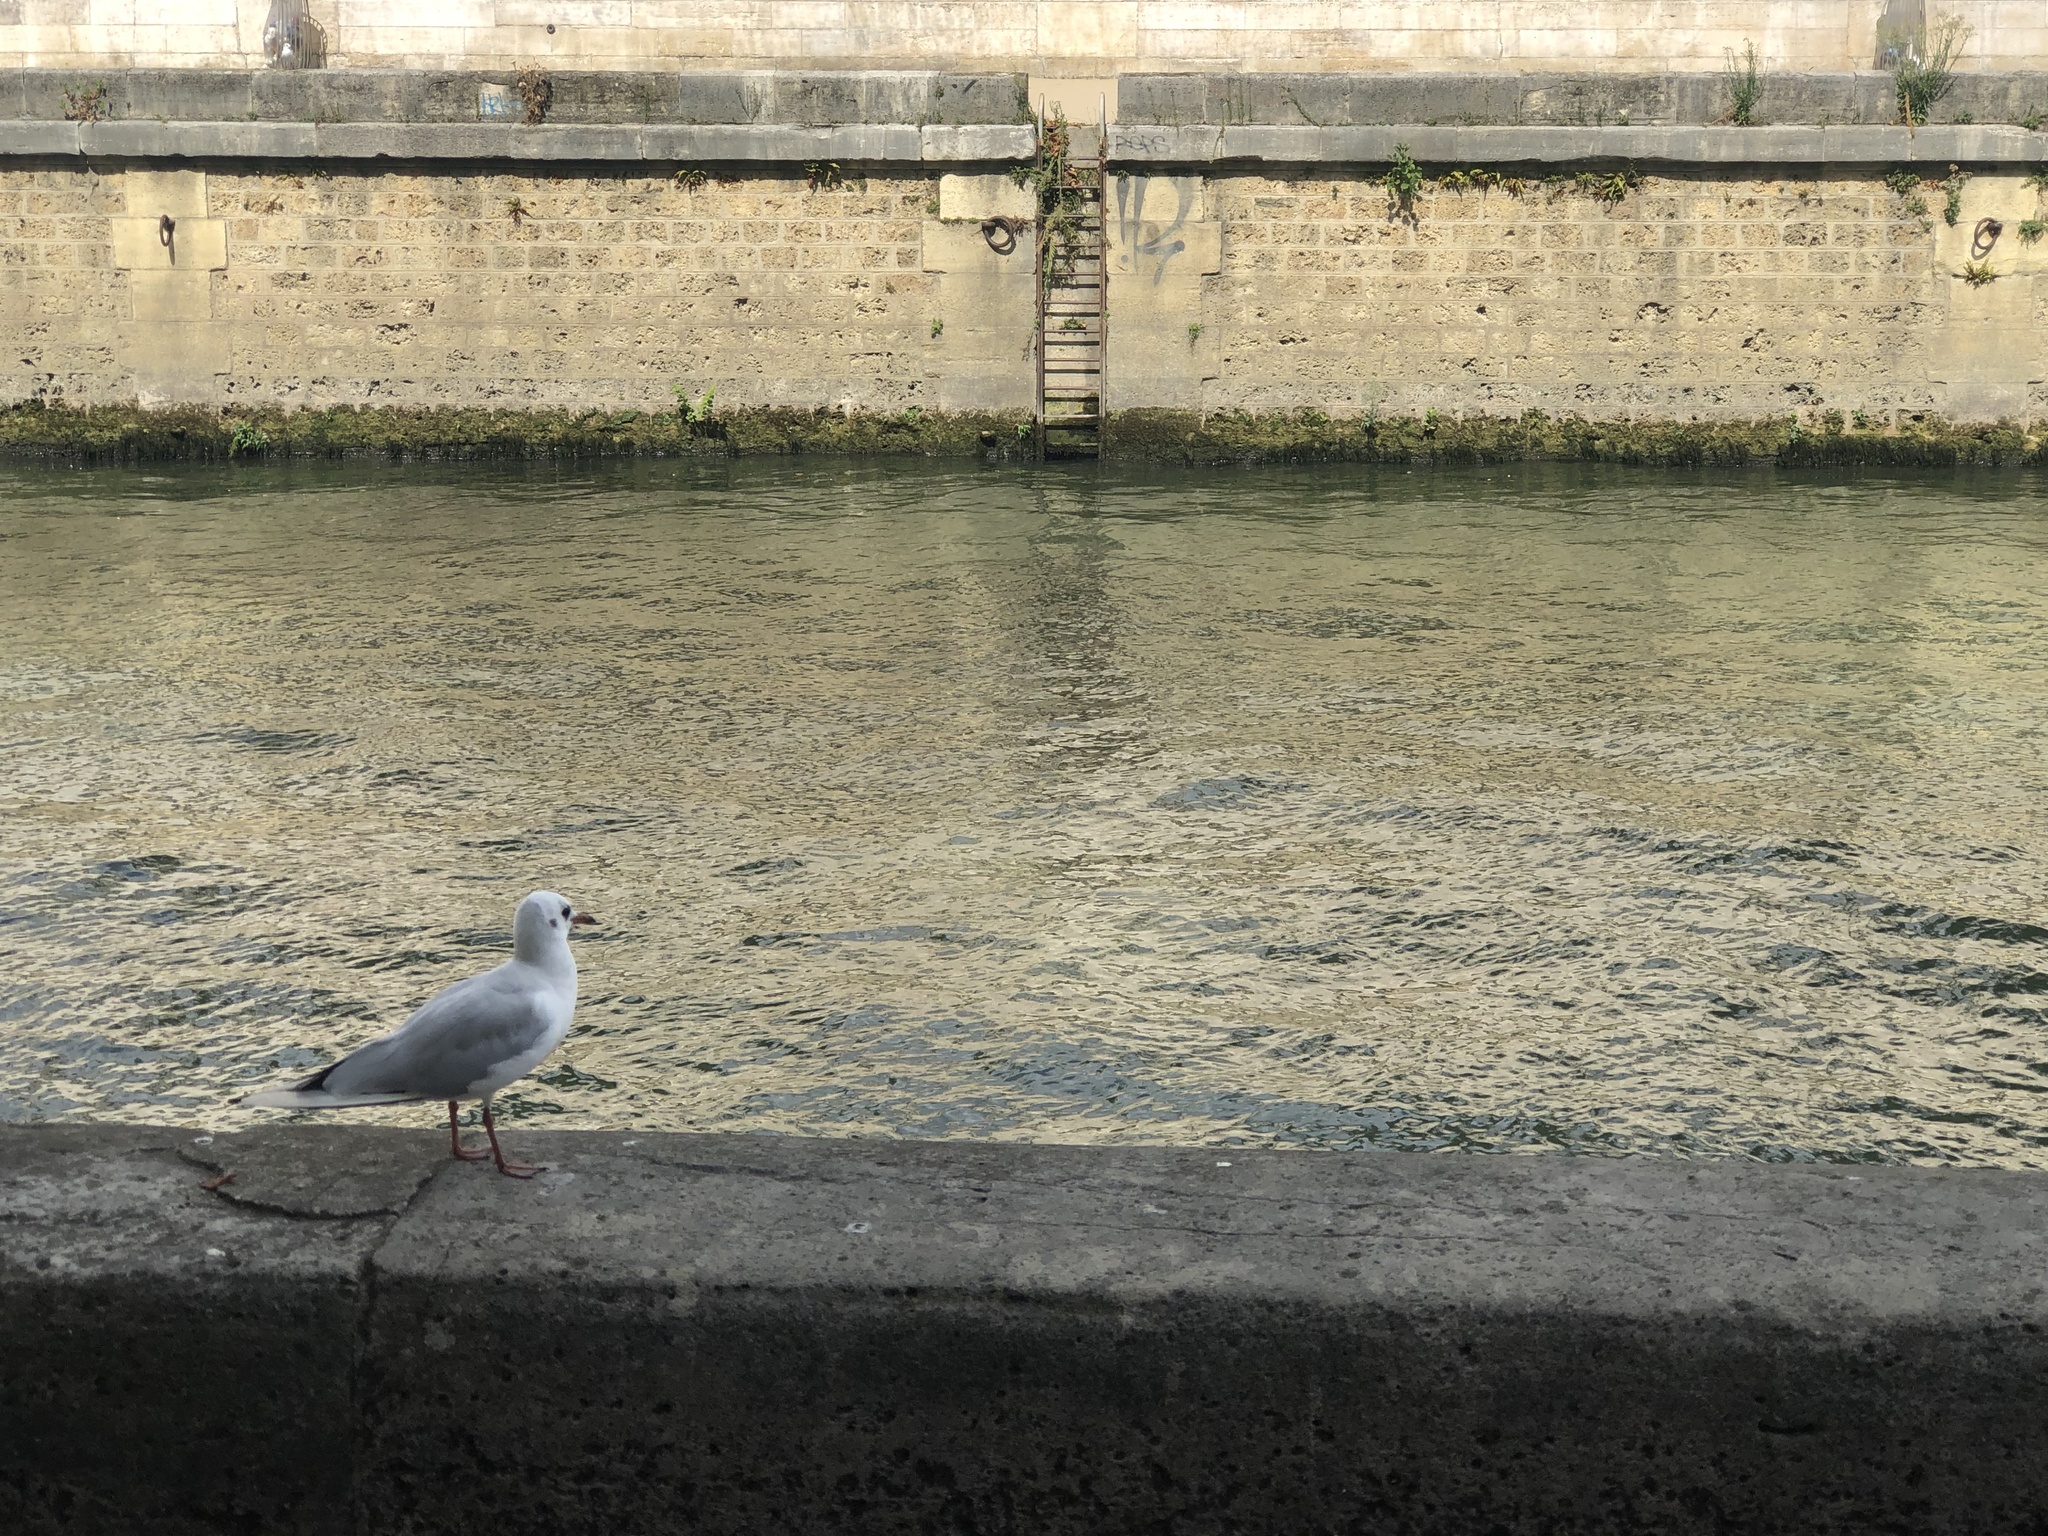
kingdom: Animalia
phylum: Chordata
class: Aves
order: Charadriiformes
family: Laridae
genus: Chroicocephalus
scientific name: Chroicocephalus ridibundus
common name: Black-headed gull
